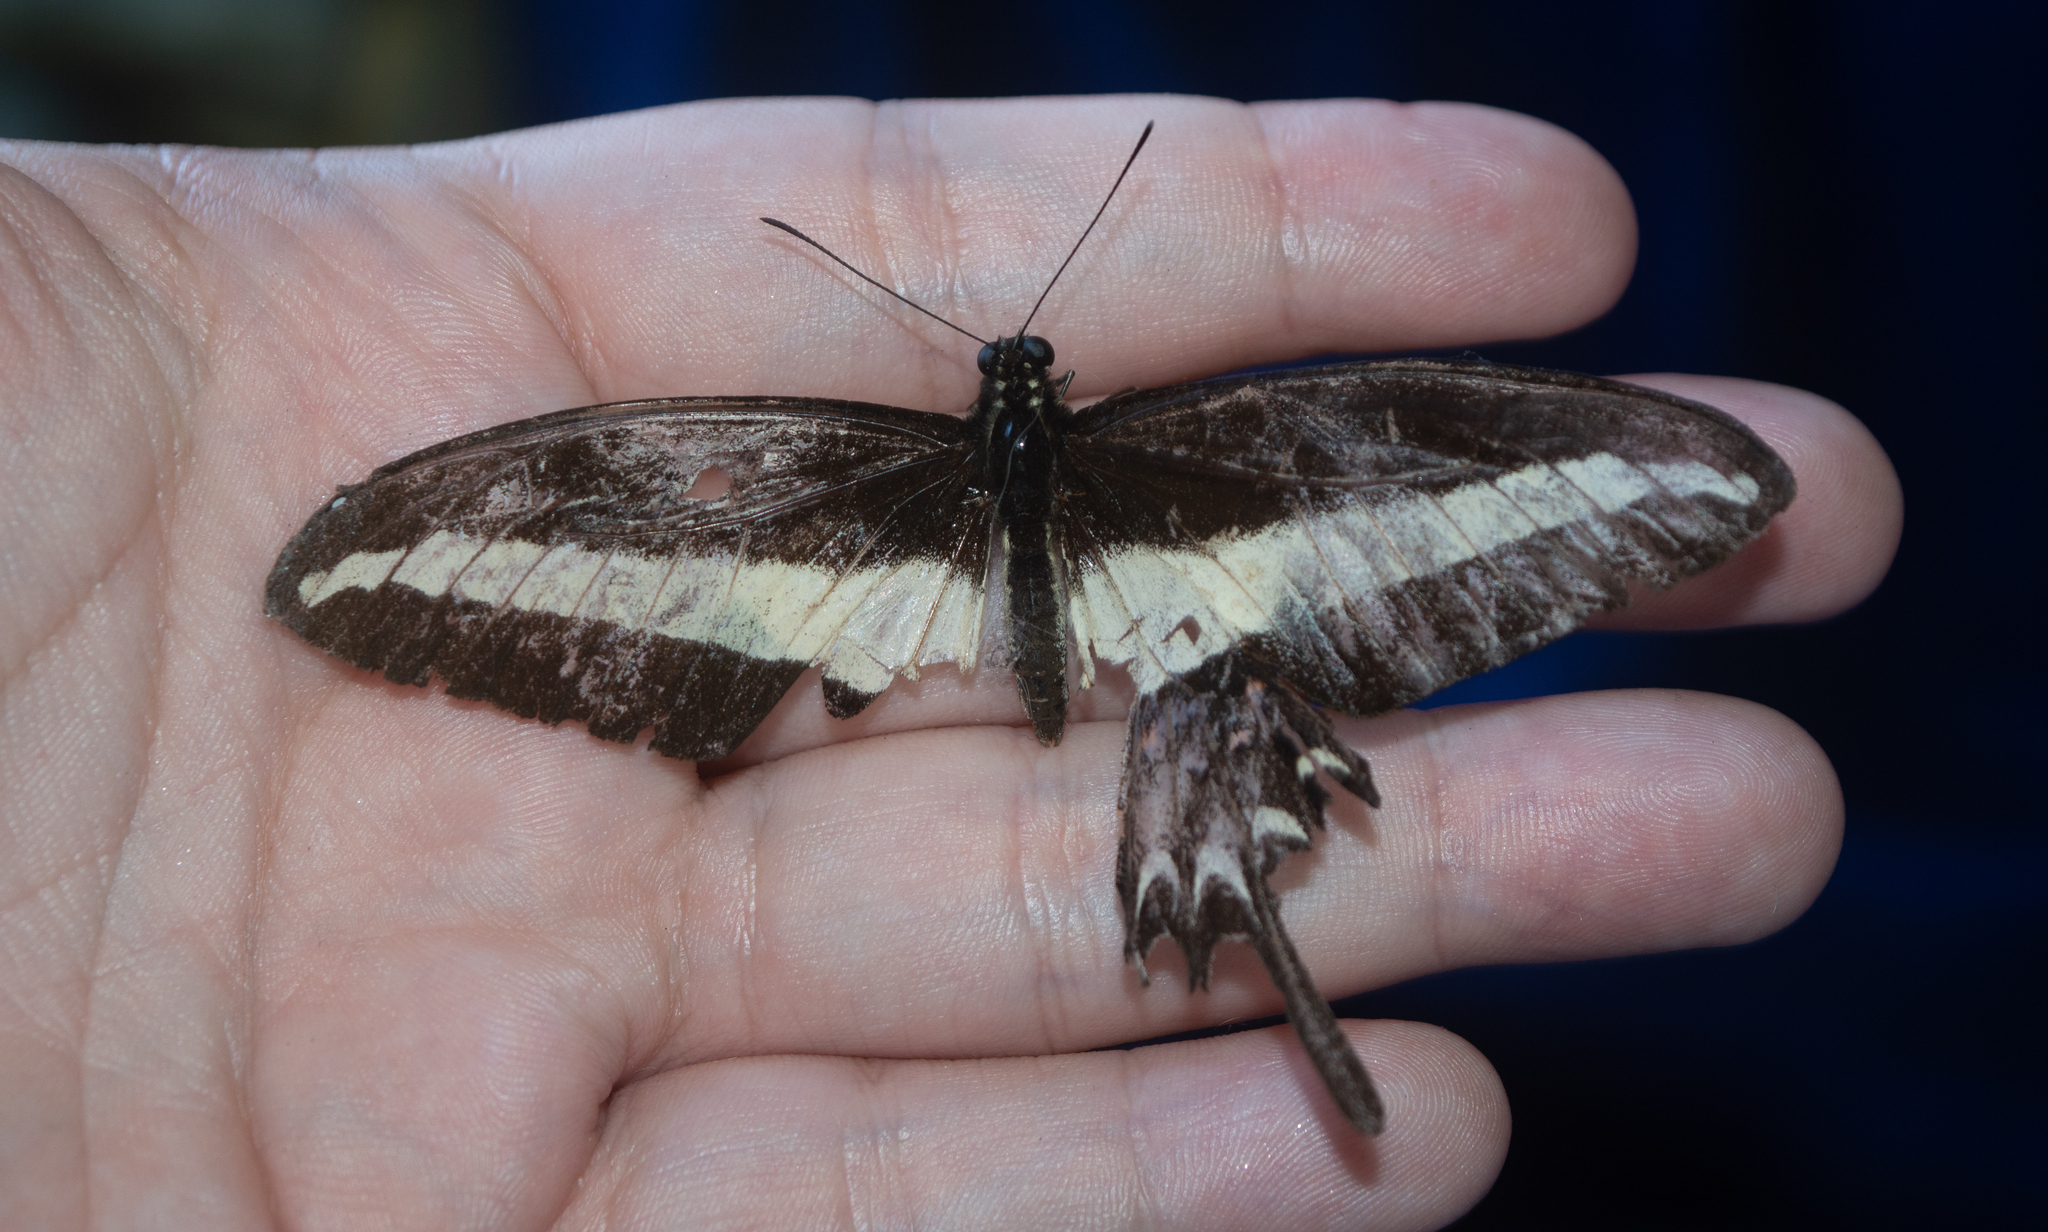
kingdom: Animalia
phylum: Arthropoda
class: Insecta
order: Lepidoptera
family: Papilionidae
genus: Heraclides
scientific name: Heraclides hectorides
